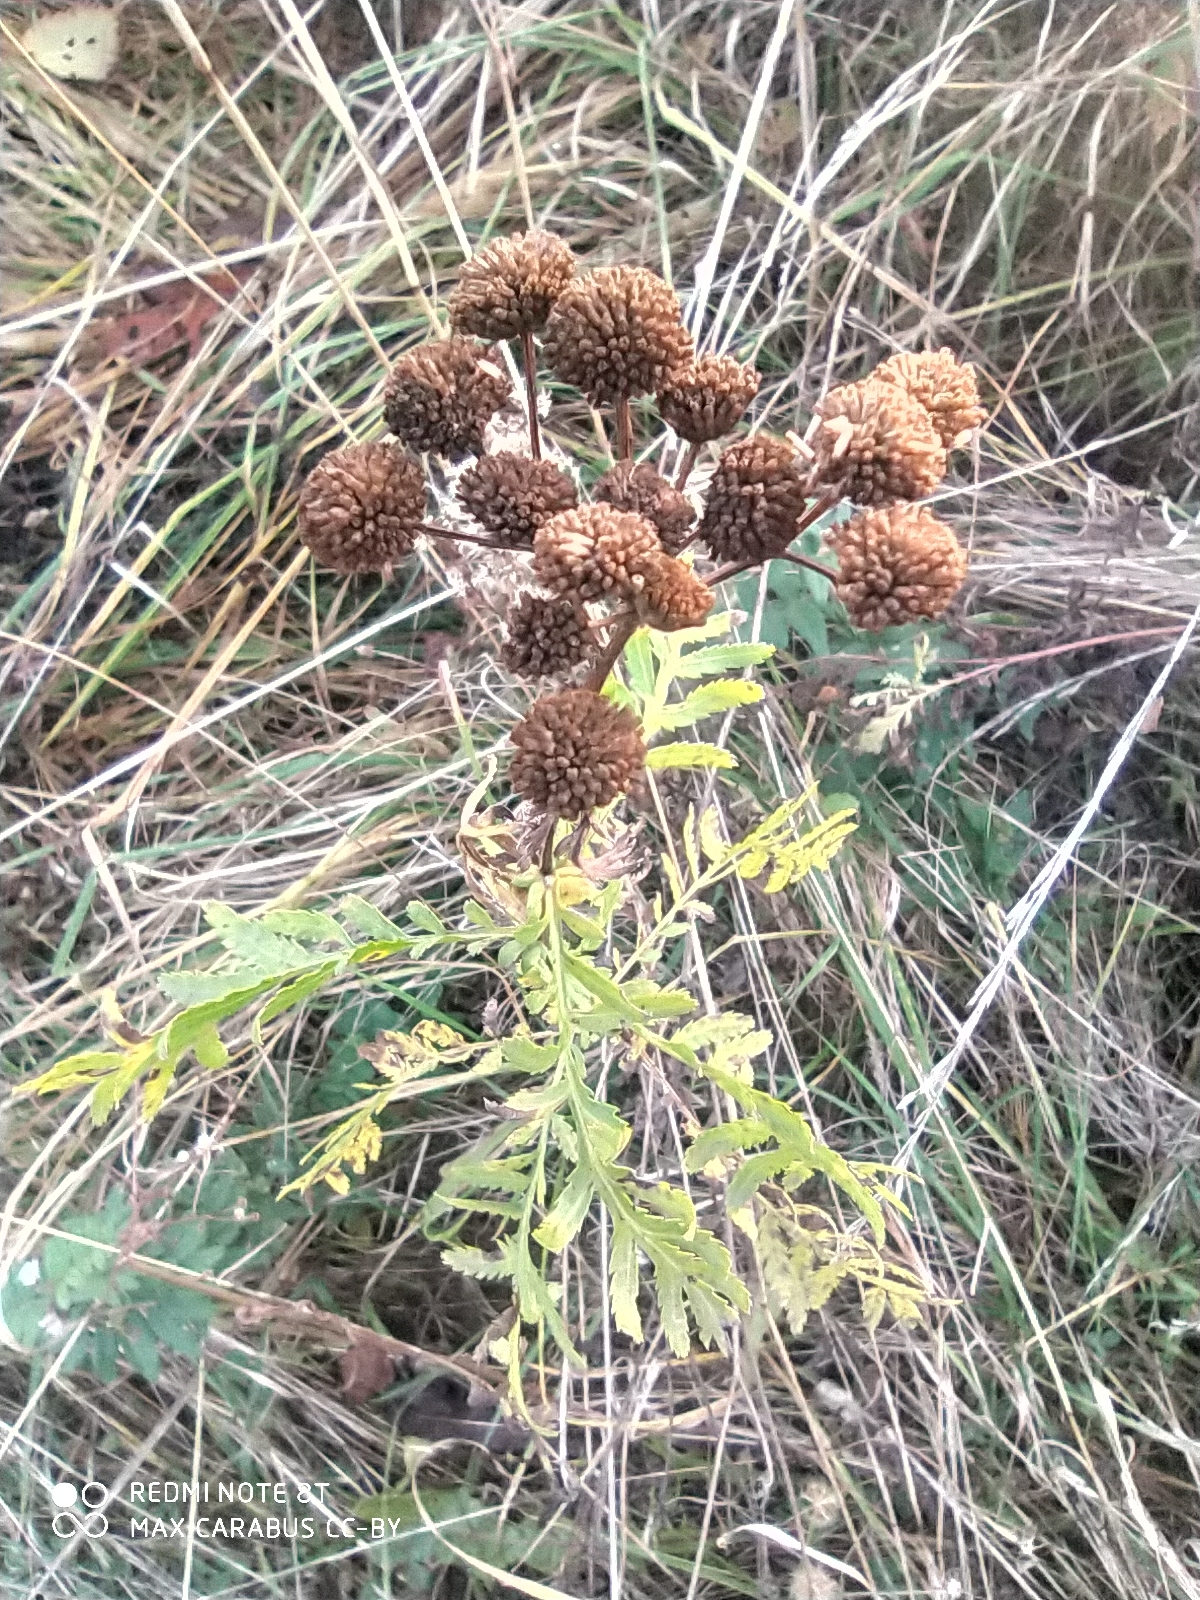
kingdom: Plantae
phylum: Tracheophyta
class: Magnoliopsida
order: Asterales
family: Asteraceae
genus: Tanacetum
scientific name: Tanacetum vulgare
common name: Common tansy
